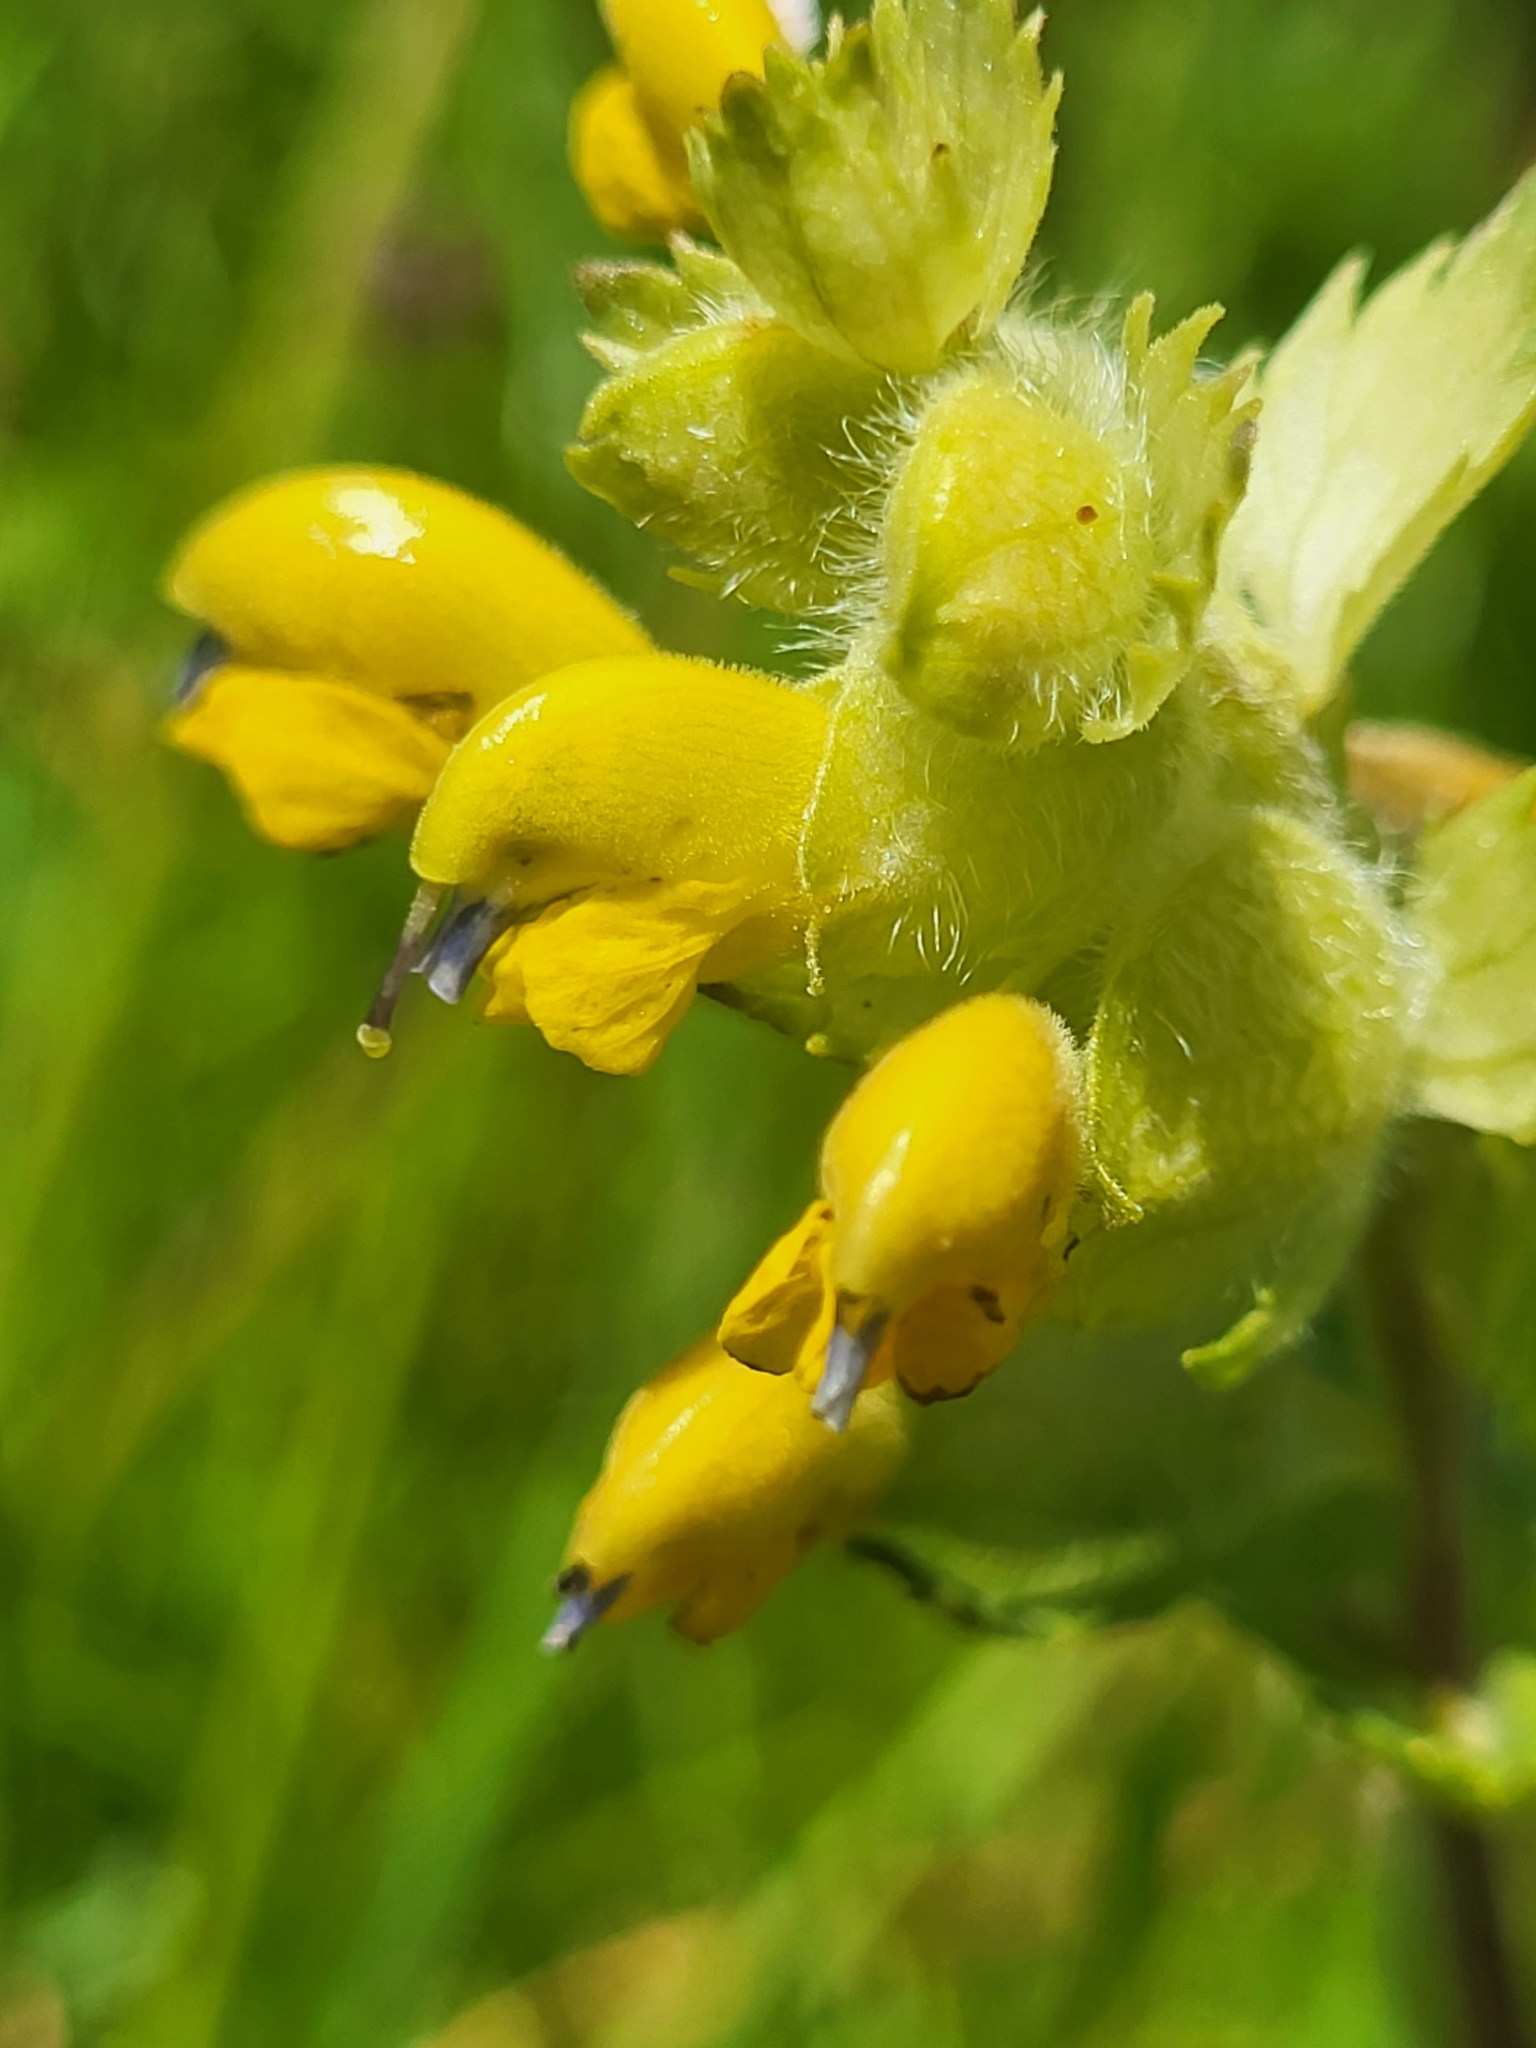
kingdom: Plantae
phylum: Tracheophyta
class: Magnoliopsida
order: Lamiales
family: Orobanchaceae
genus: Rhinanthus
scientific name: Rhinanthus alectorolophus
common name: Greater yellow-rattle
